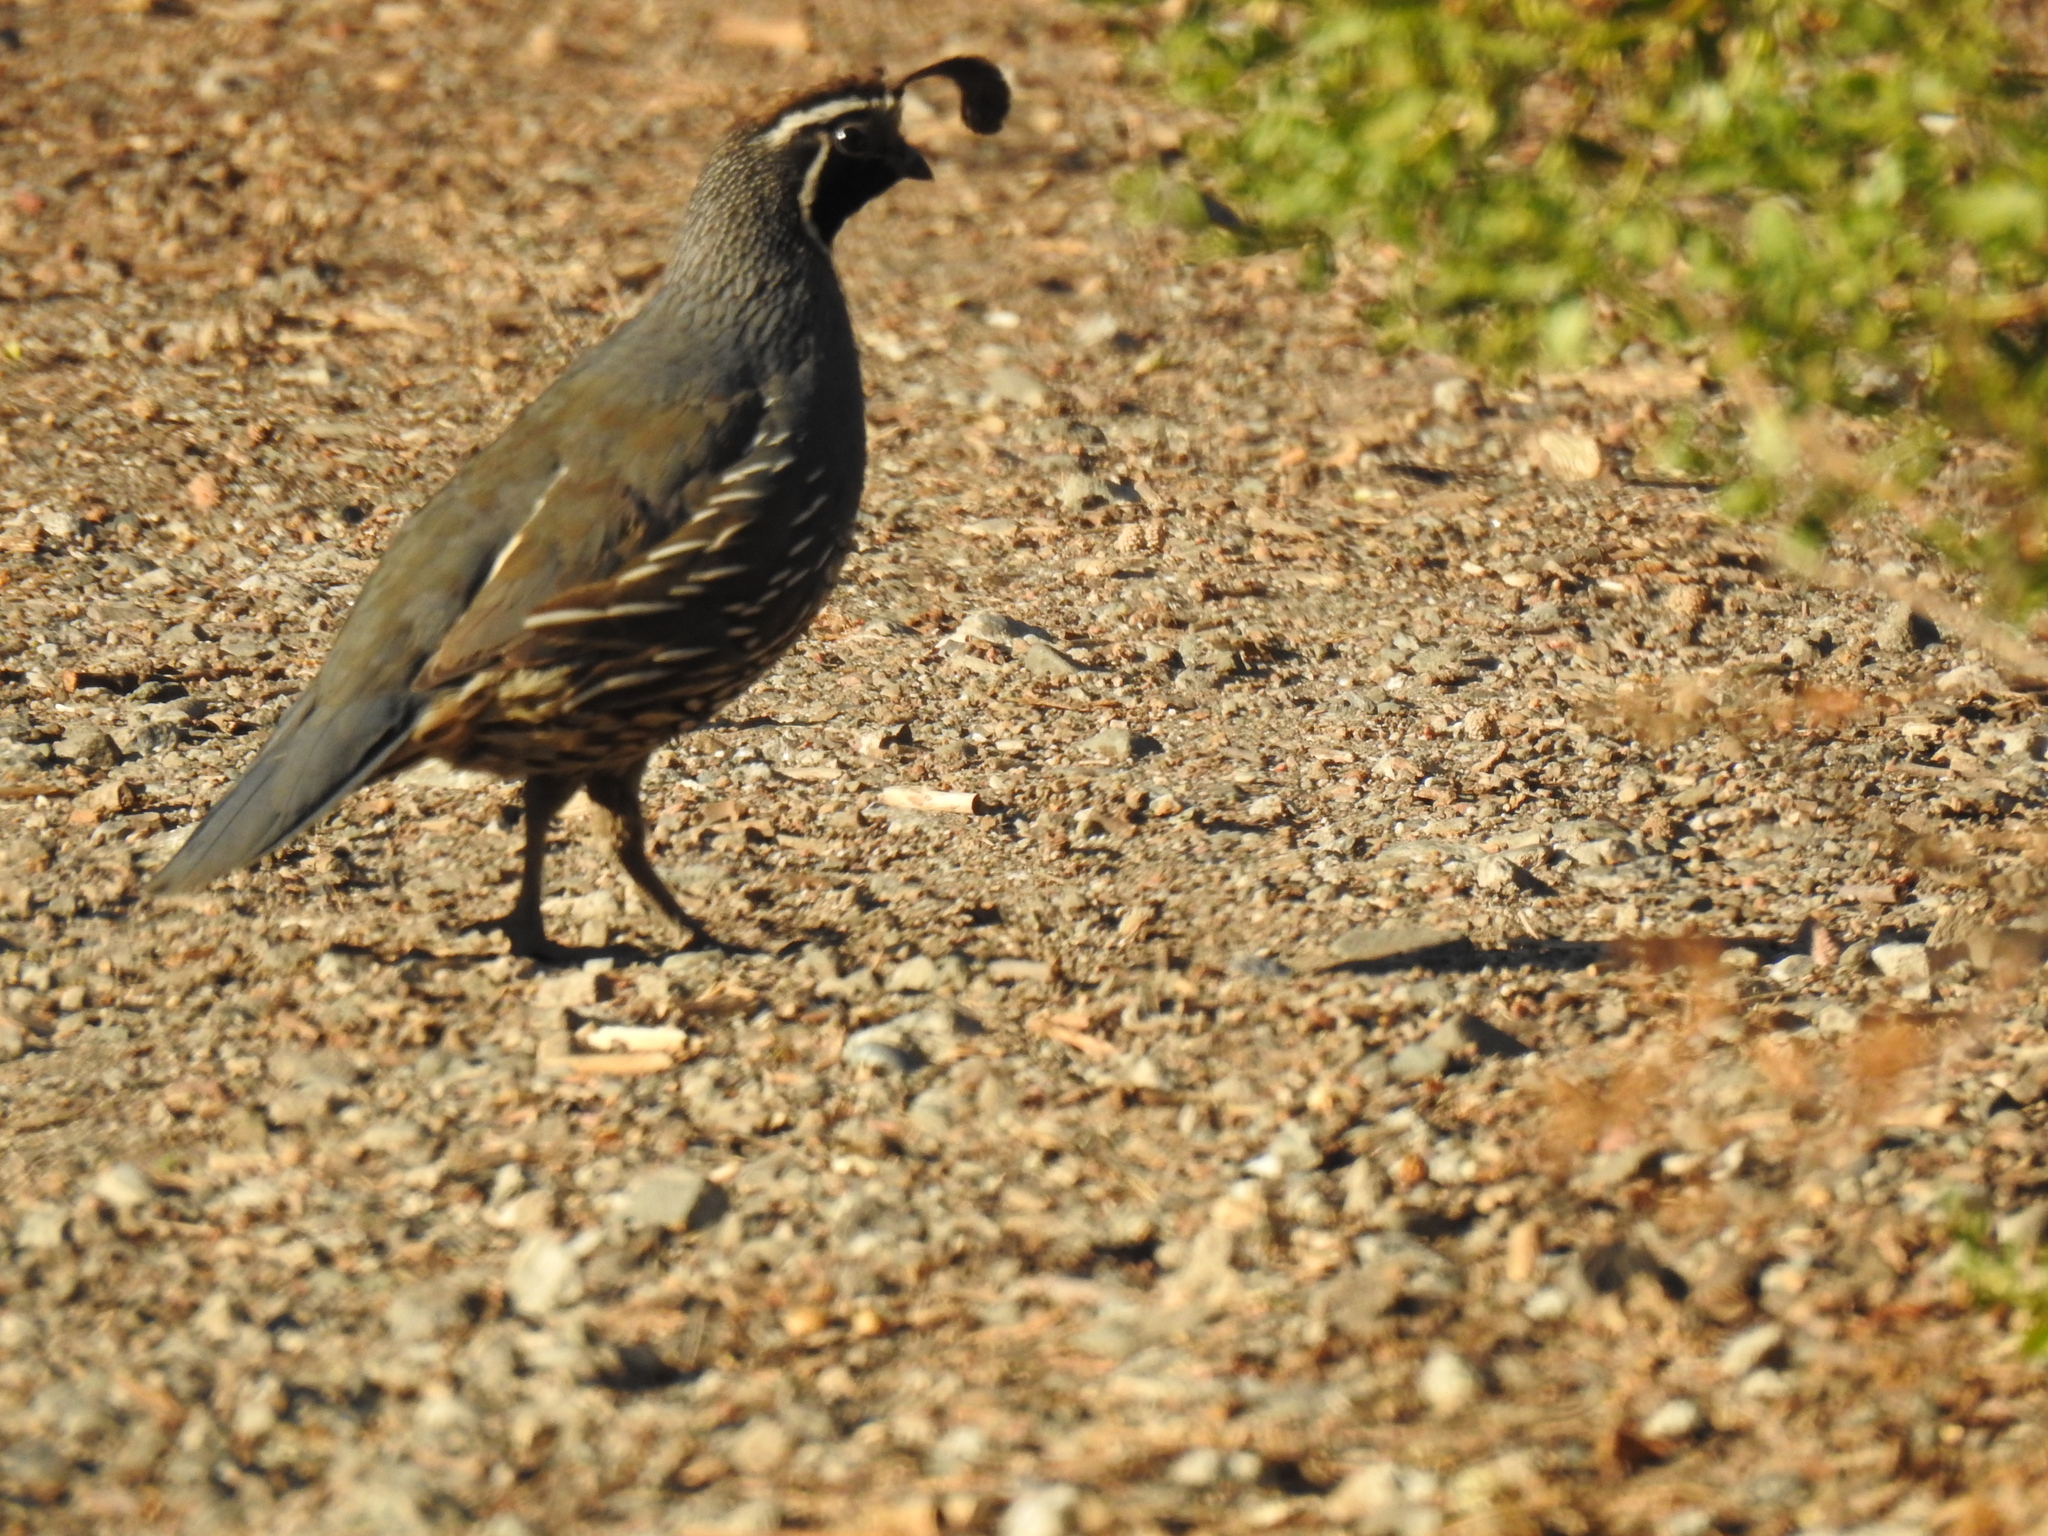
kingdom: Animalia
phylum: Chordata
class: Aves
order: Galliformes
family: Odontophoridae
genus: Callipepla
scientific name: Callipepla californica
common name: California quail
